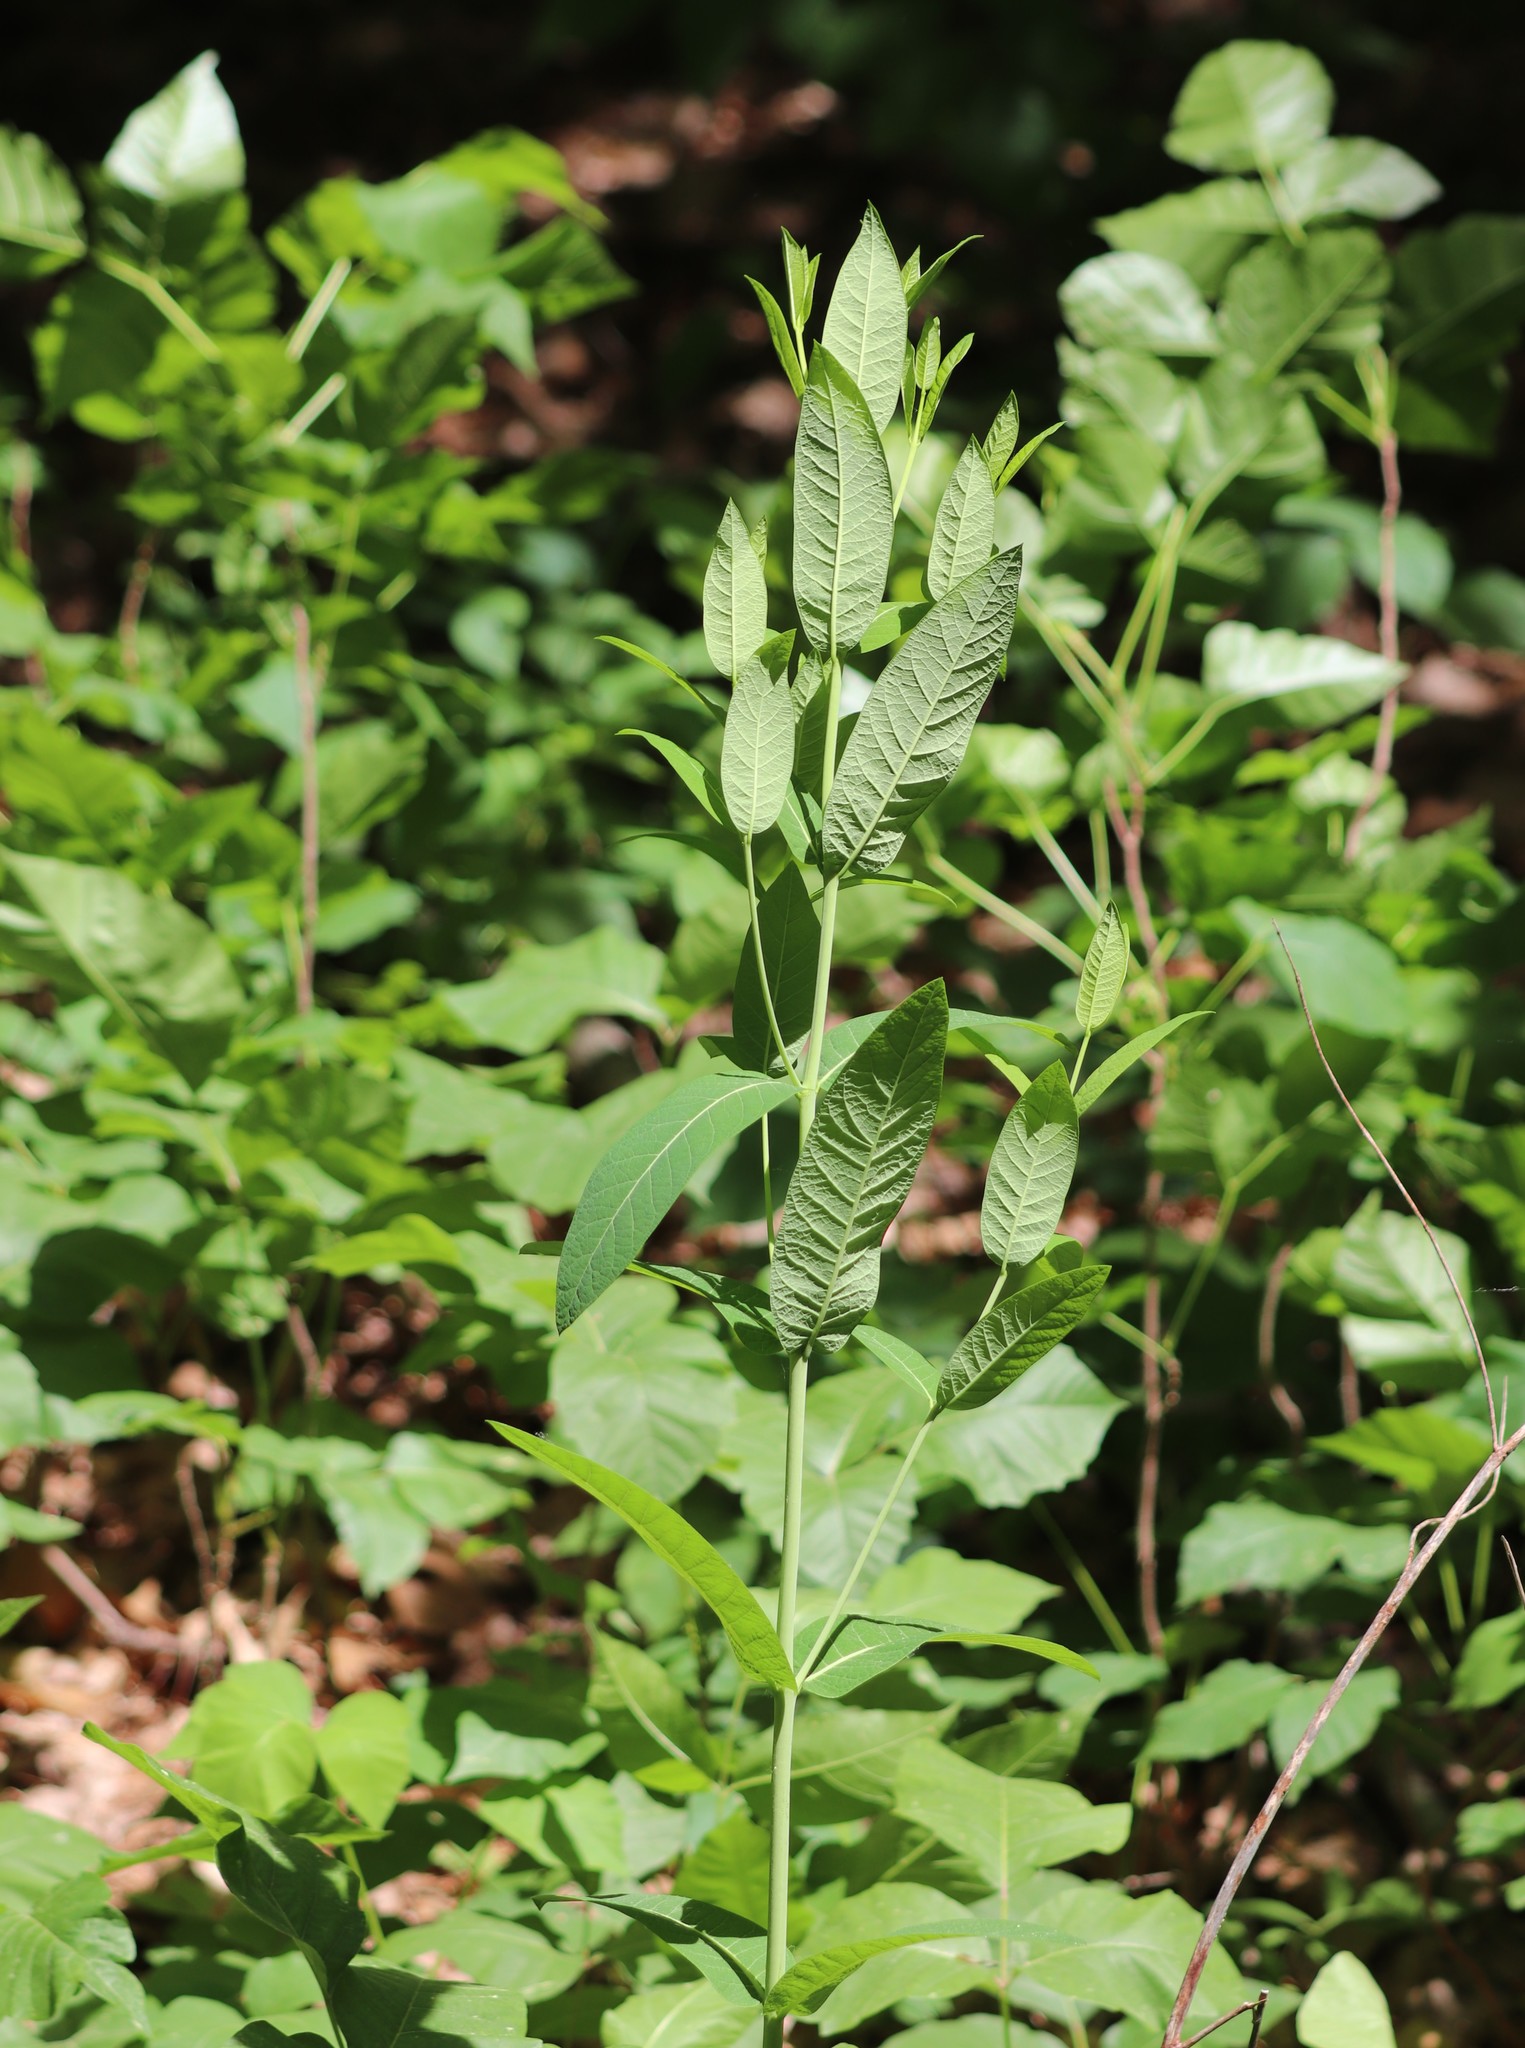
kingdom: Plantae
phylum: Tracheophyta
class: Magnoliopsida
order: Gentianales
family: Apocynaceae
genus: Apocynum
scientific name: Apocynum cannabinum
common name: Hemp dogbane
